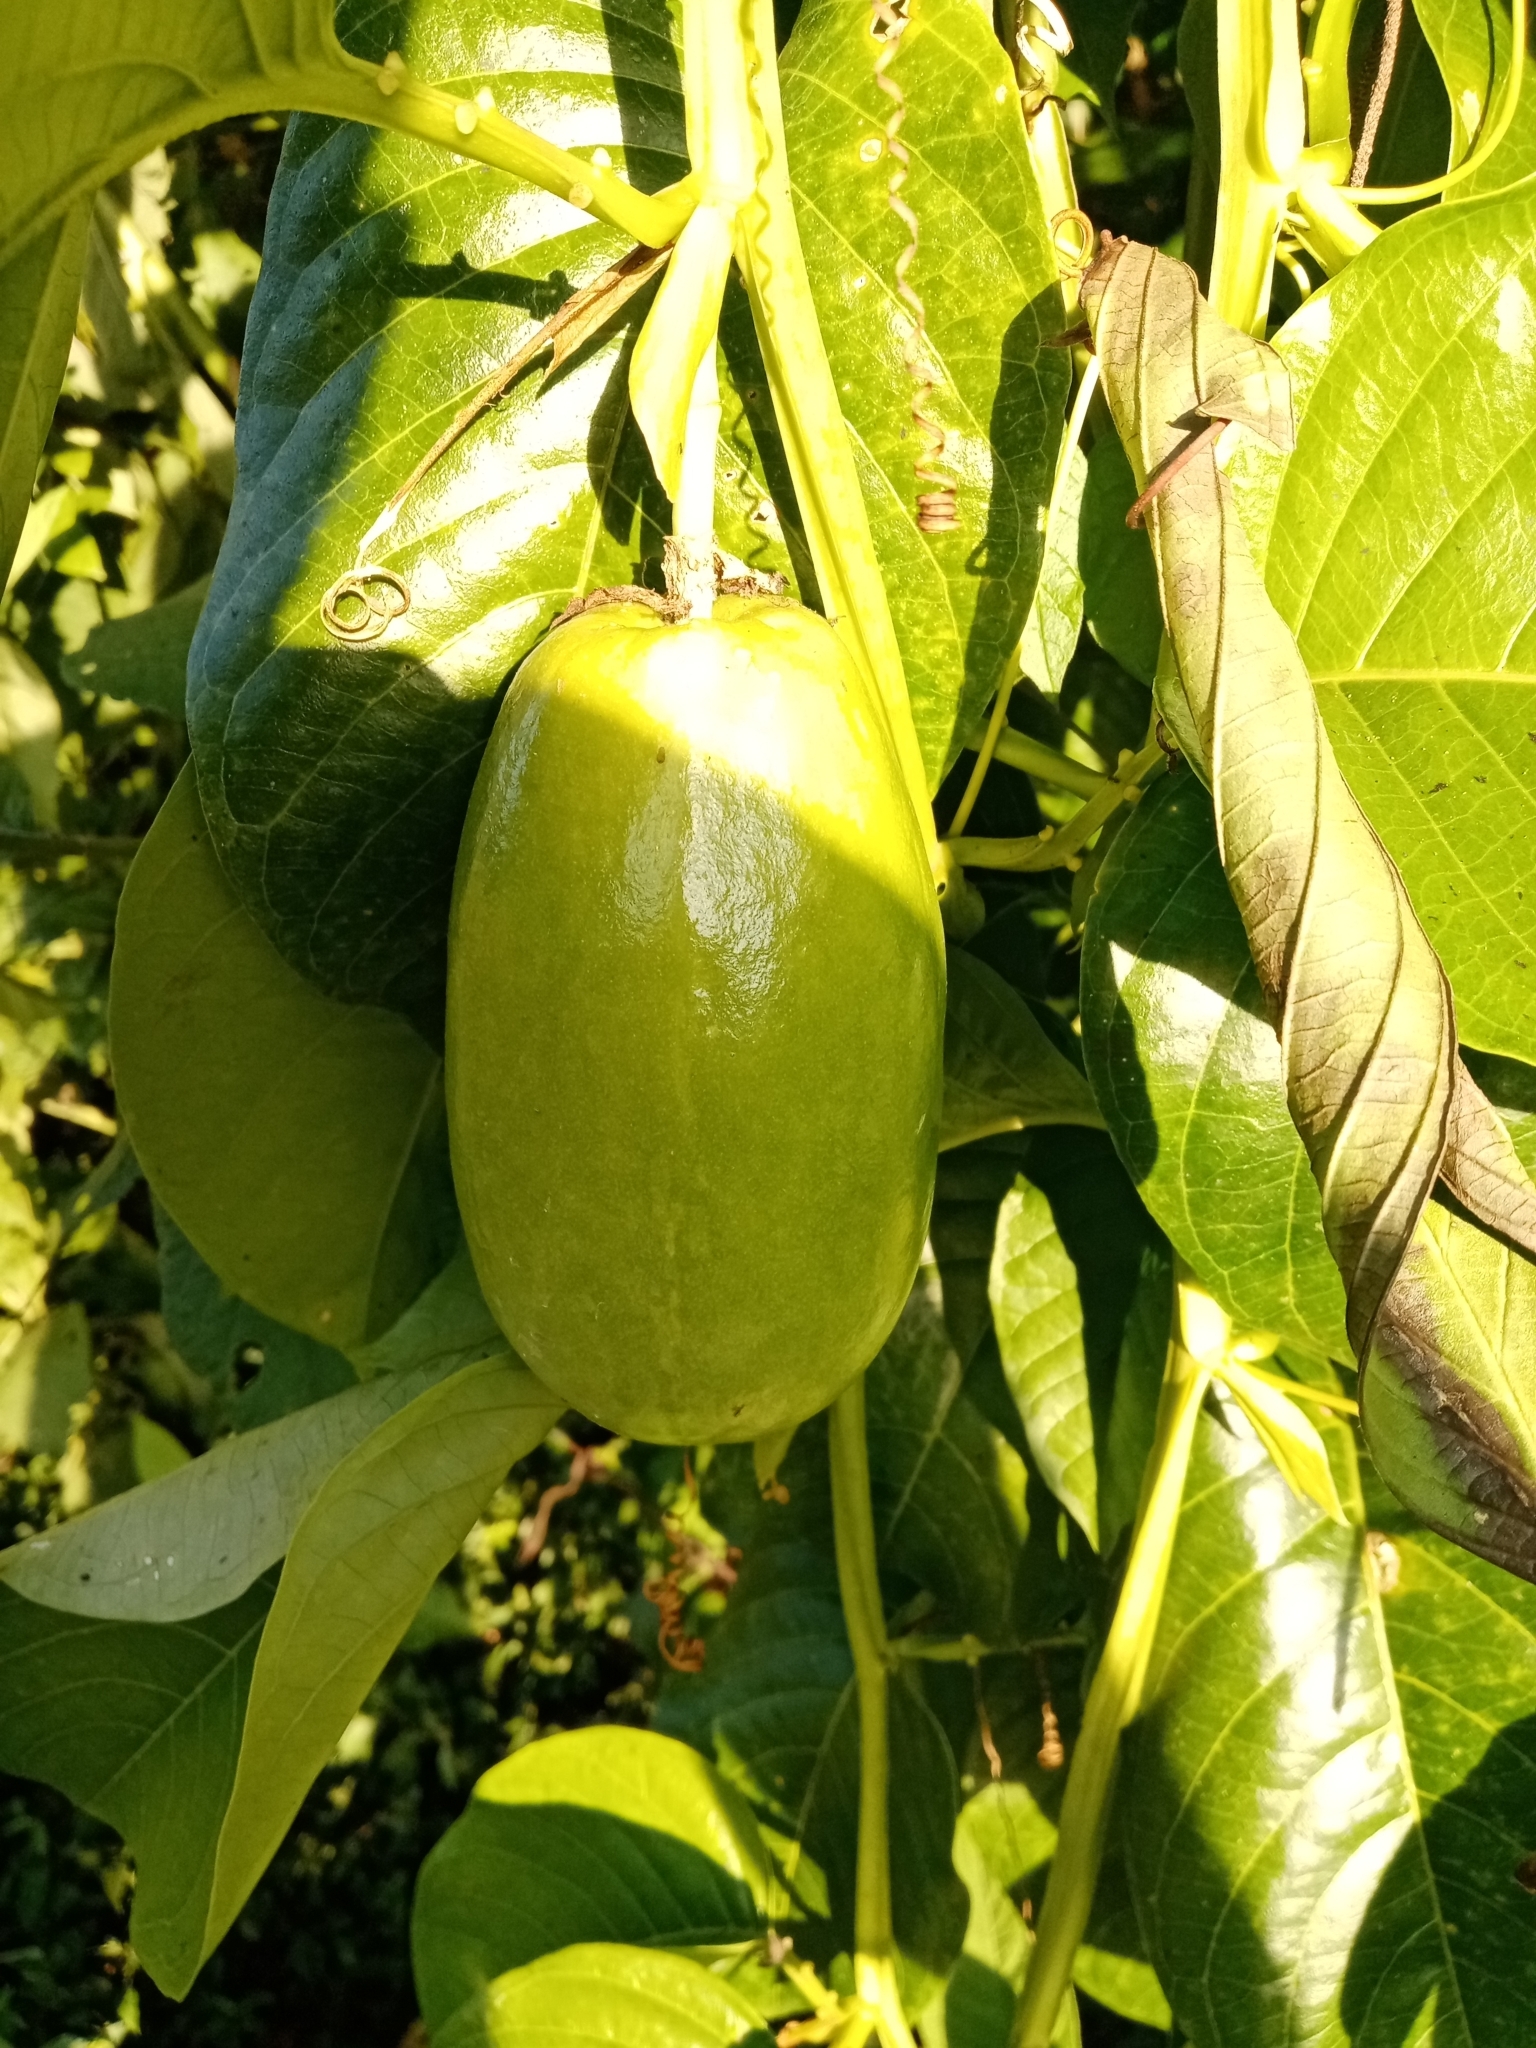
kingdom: Plantae
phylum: Tracheophyta
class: Magnoliopsida
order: Malpighiales
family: Passifloraceae
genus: Passiflora
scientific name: Passiflora quadrangularis
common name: Giant granadilla
